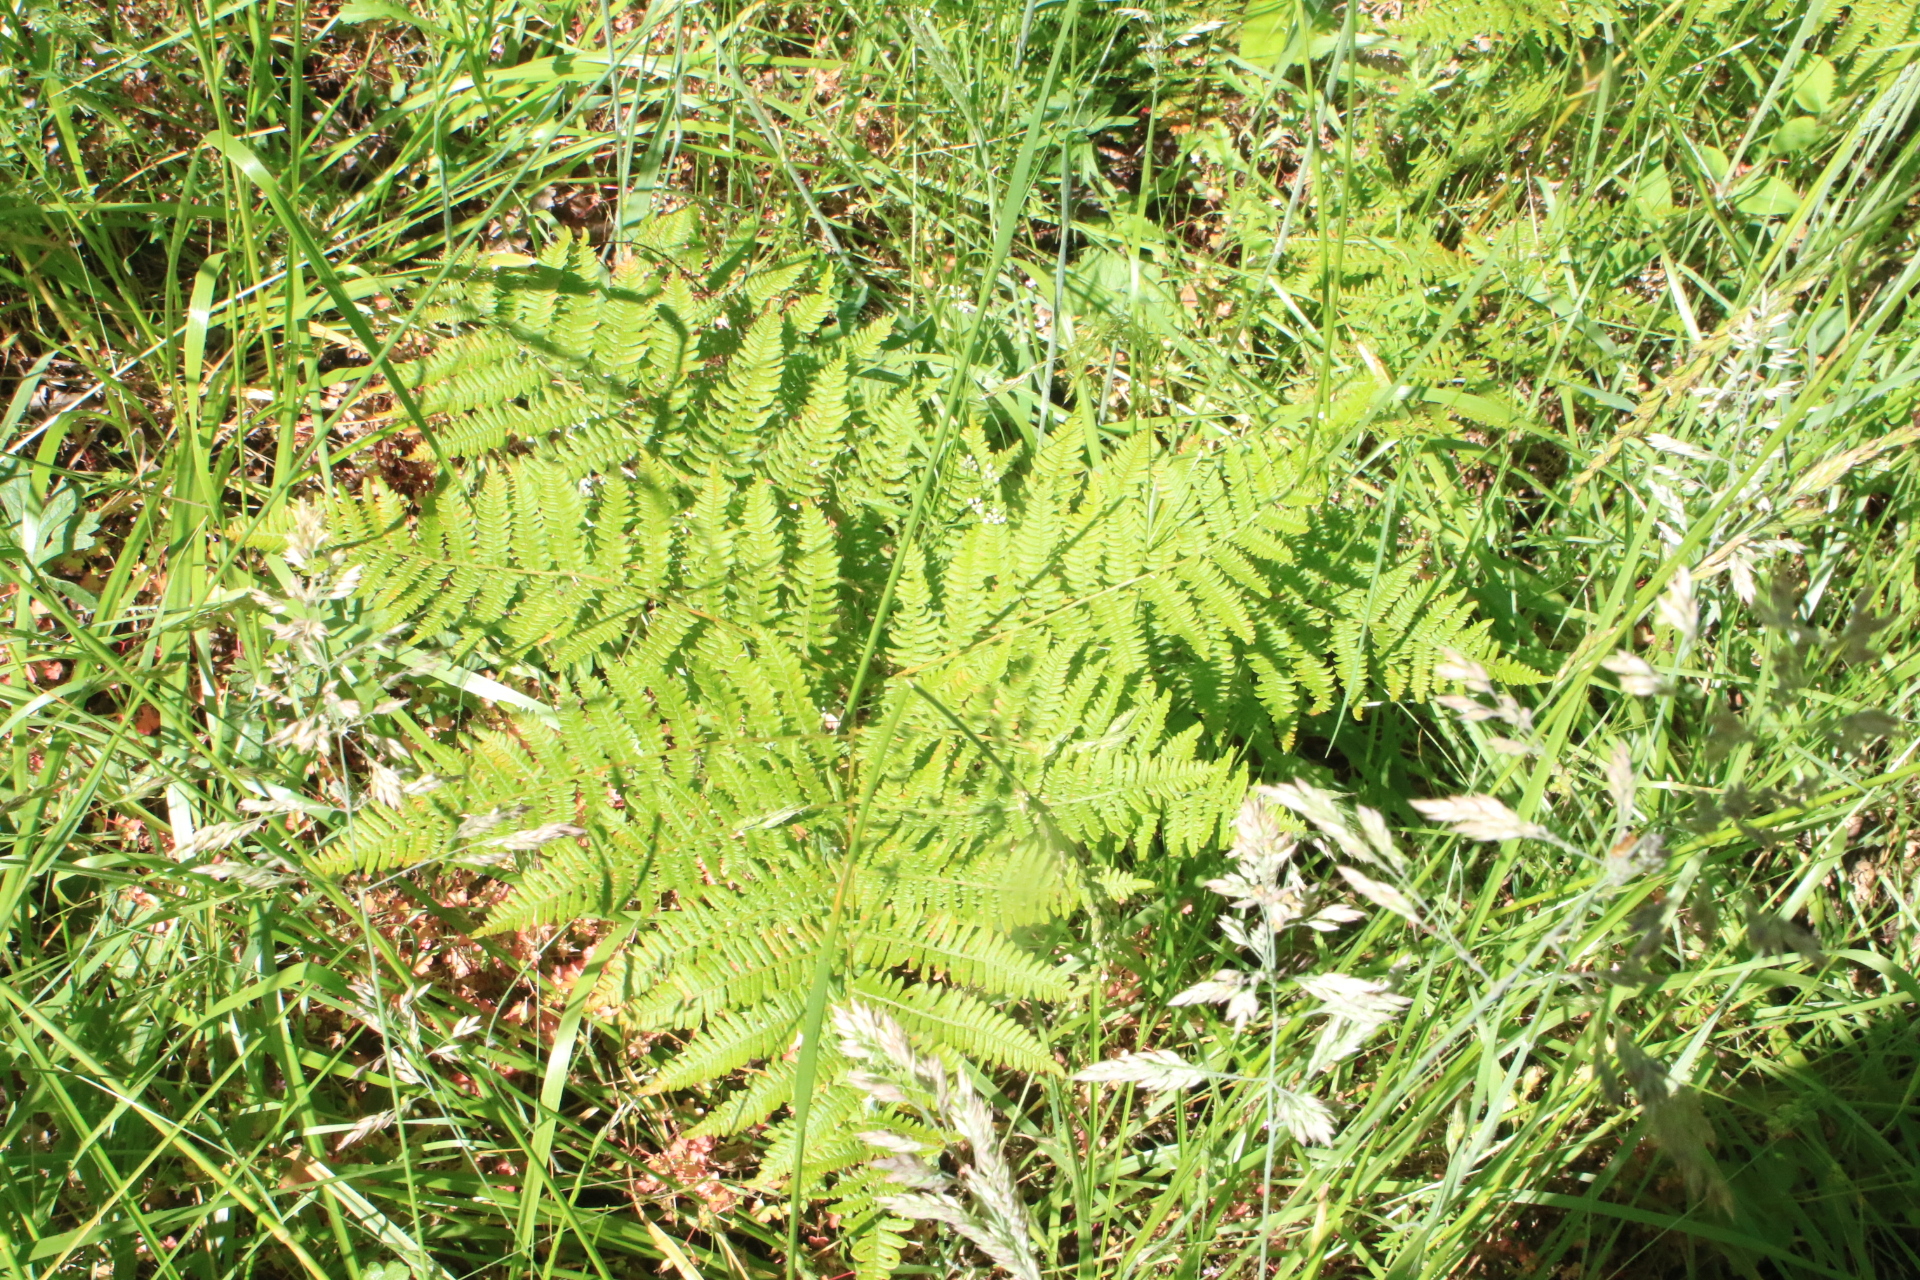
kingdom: Plantae
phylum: Tracheophyta
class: Polypodiopsida
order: Polypodiales
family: Dennstaedtiaceae
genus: Pteridium
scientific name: Pteridium aquilinum
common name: Bracken
